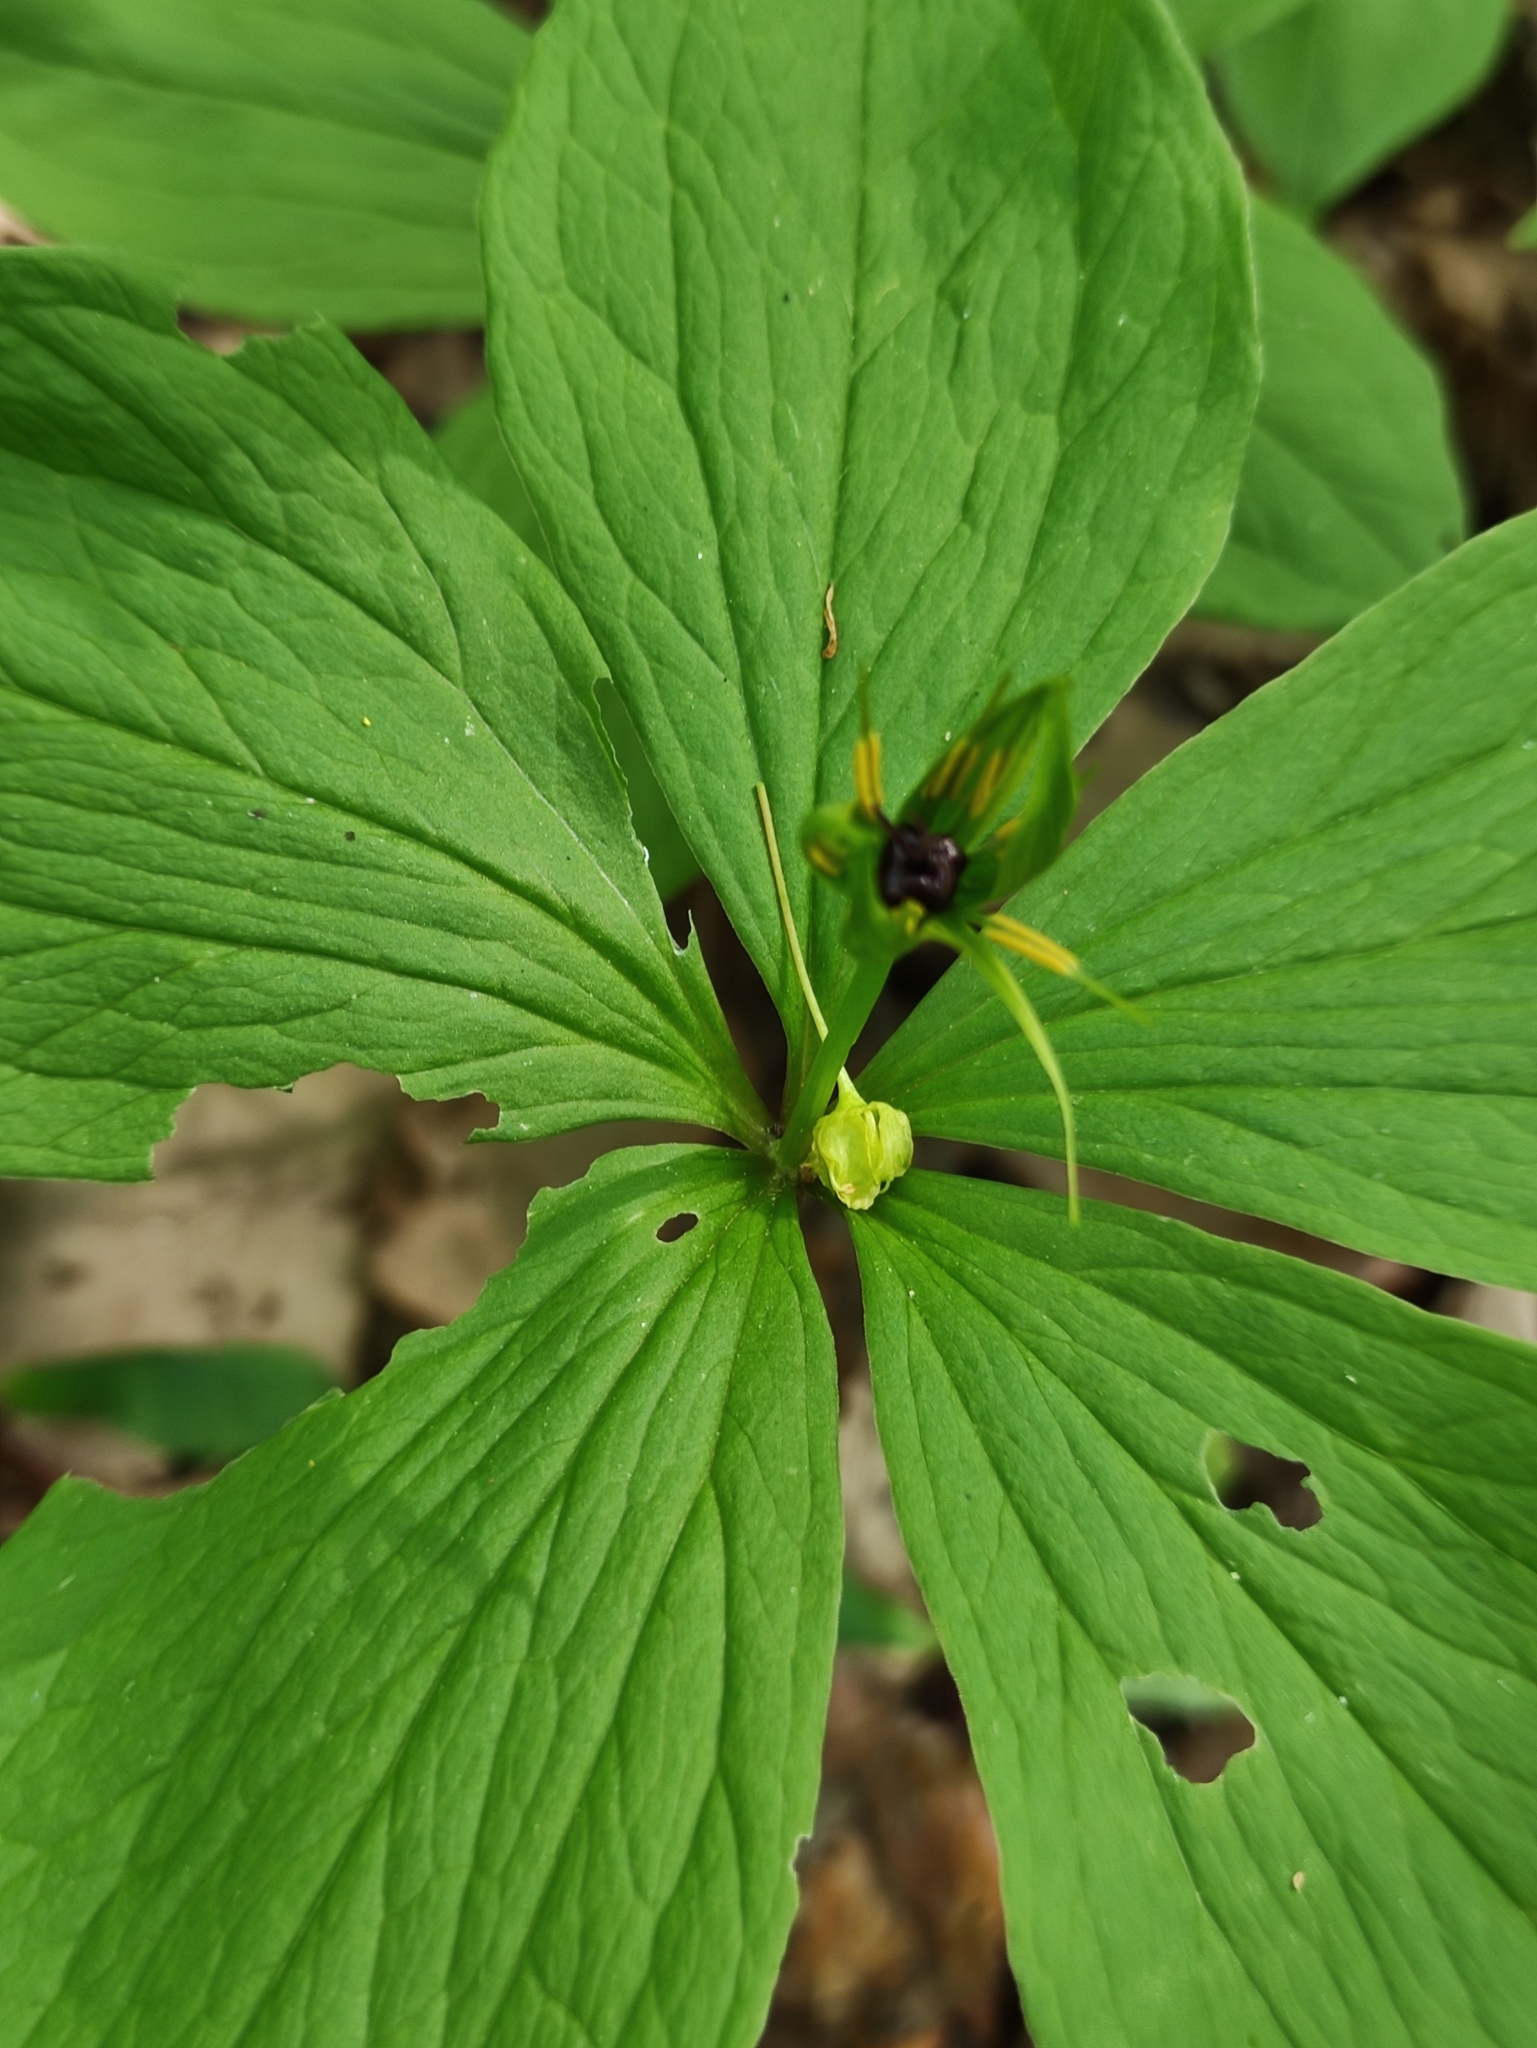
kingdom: Plantae
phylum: Tracheophyta
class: Liliopsida
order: Liliales
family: Melanthiaceae
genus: Paris
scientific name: Paris quadrifolia
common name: Herb-paris
